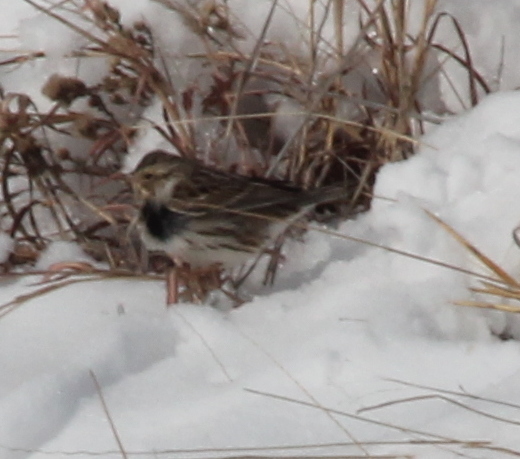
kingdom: Animalia
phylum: Chordata
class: Aves
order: Passeriformes
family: Passerellidae
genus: Passerculus
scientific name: Passerculus sandwichensis
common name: Savannah sparrow
